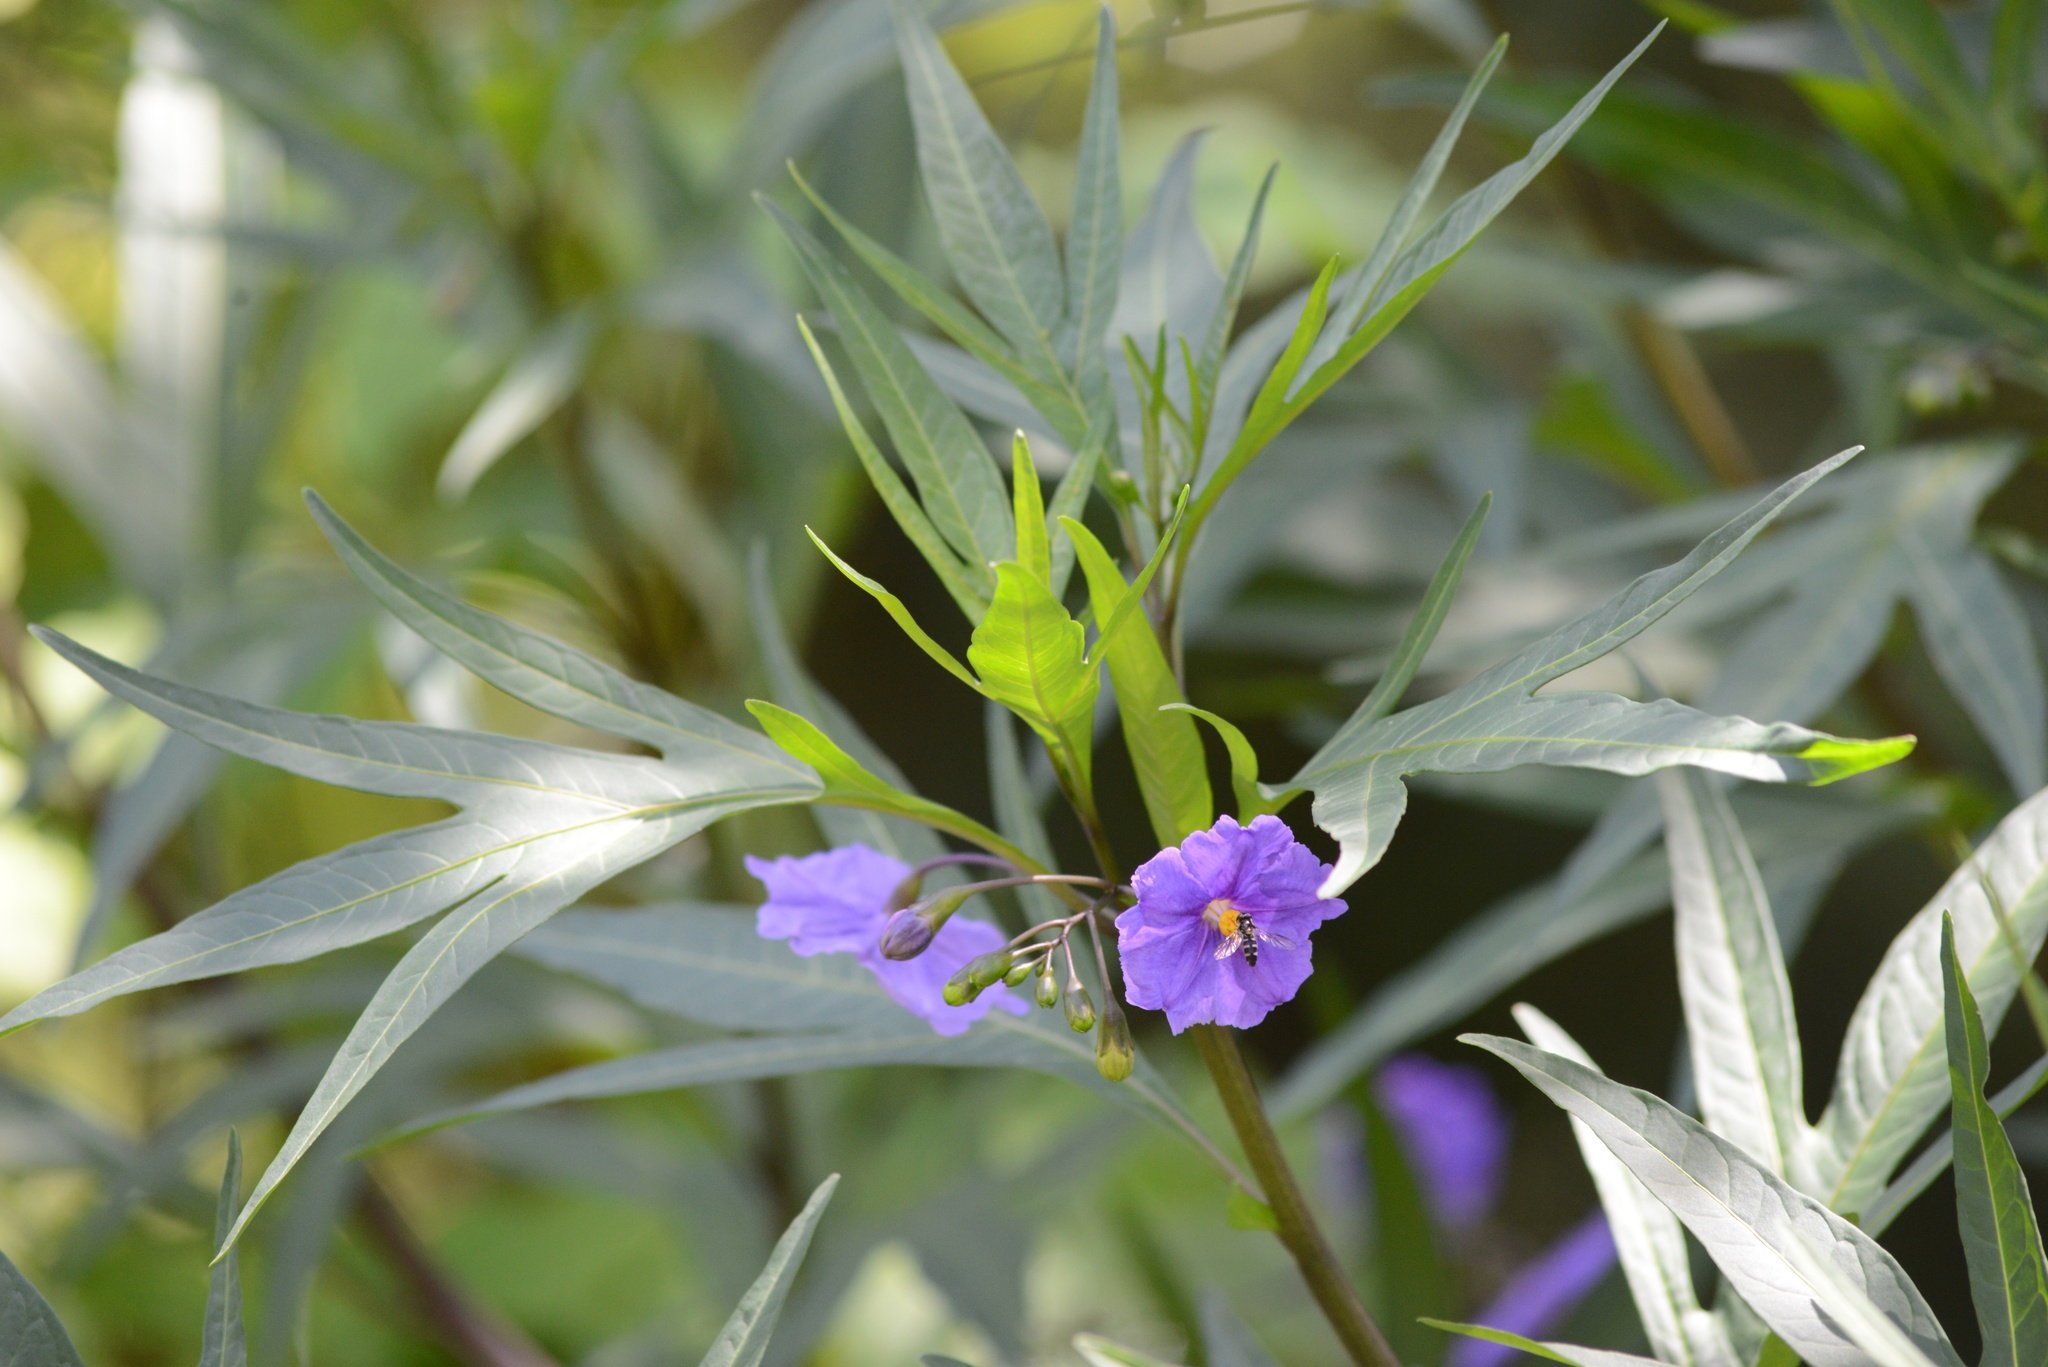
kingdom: Plantae
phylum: Tracheophyta
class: Magnoliopsida
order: Solanales
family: Solanaceae
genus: Solanum
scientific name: Solanum laciniatum
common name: Kangaroo-apple
